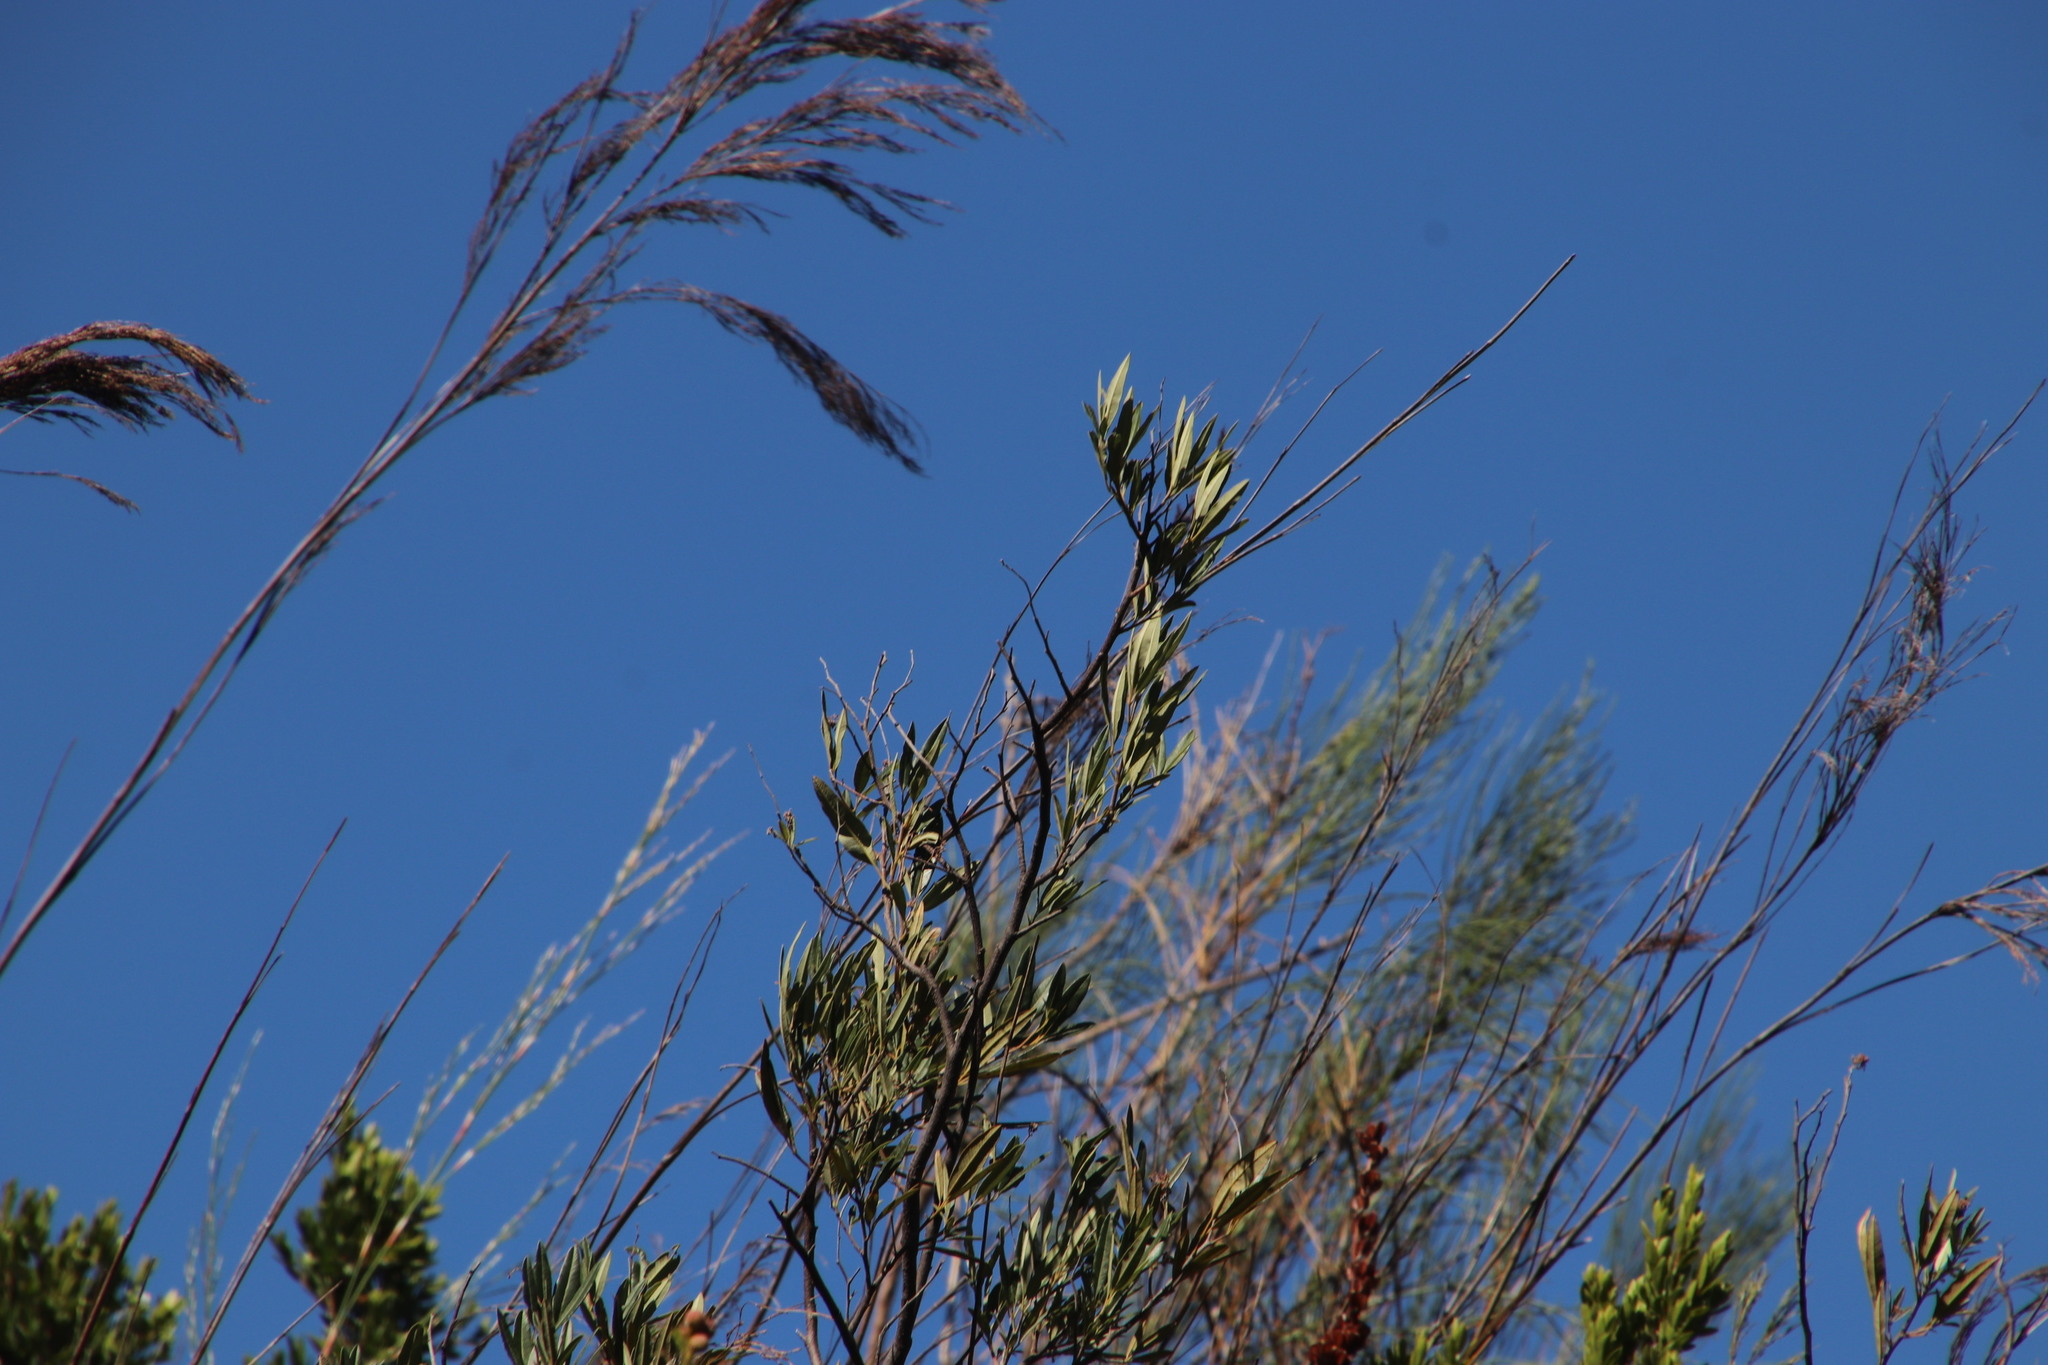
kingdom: Plantae
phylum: Tracheophyta
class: Liliopsida
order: Poales
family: Restionaceae
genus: Restio
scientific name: Restio paniculatus
